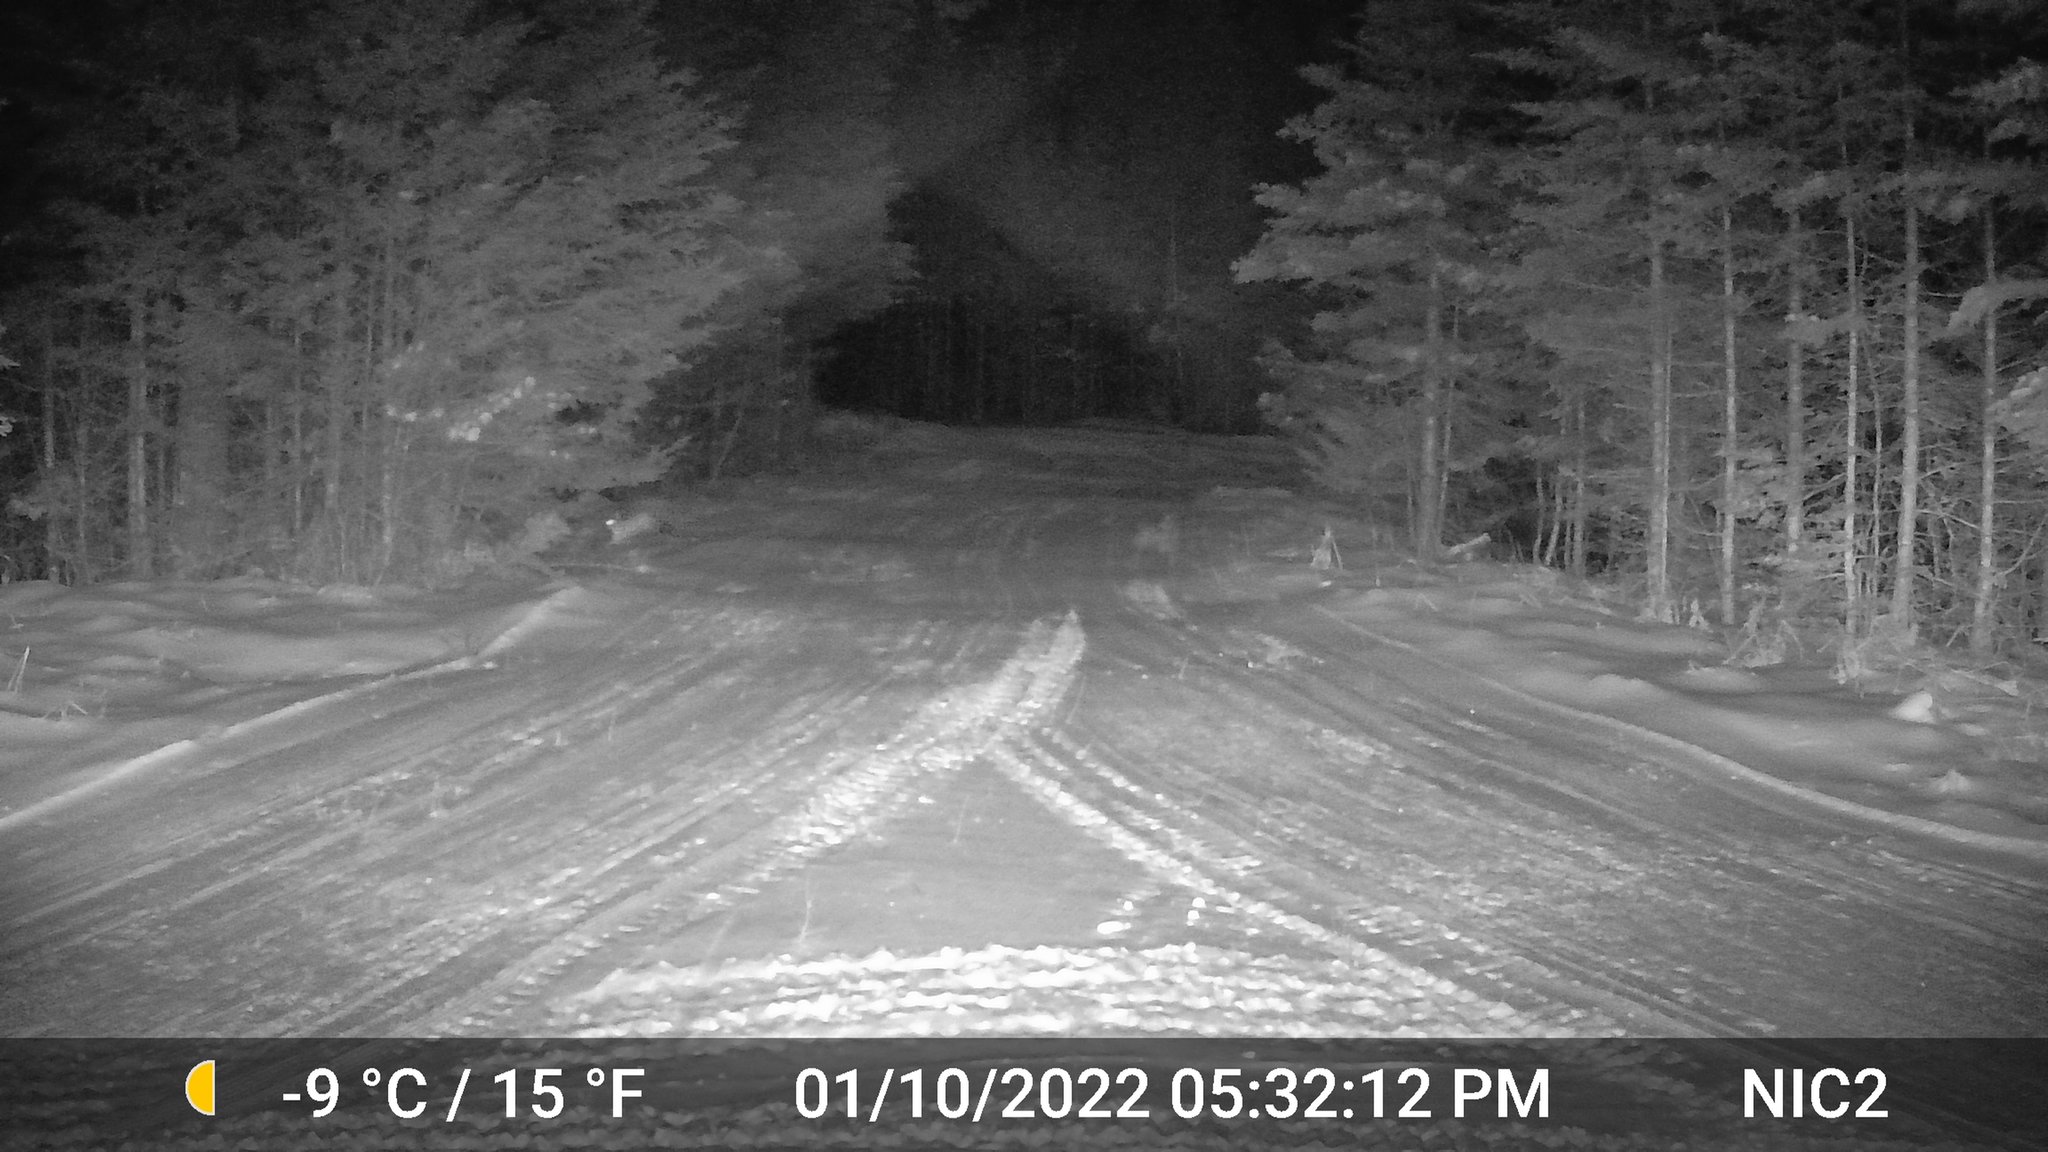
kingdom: Animalia
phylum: Chordata
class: Mammalia
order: Lagomorpha
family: Leporidae
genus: Lepus
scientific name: Lepus americanus
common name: Snowshoe hare
